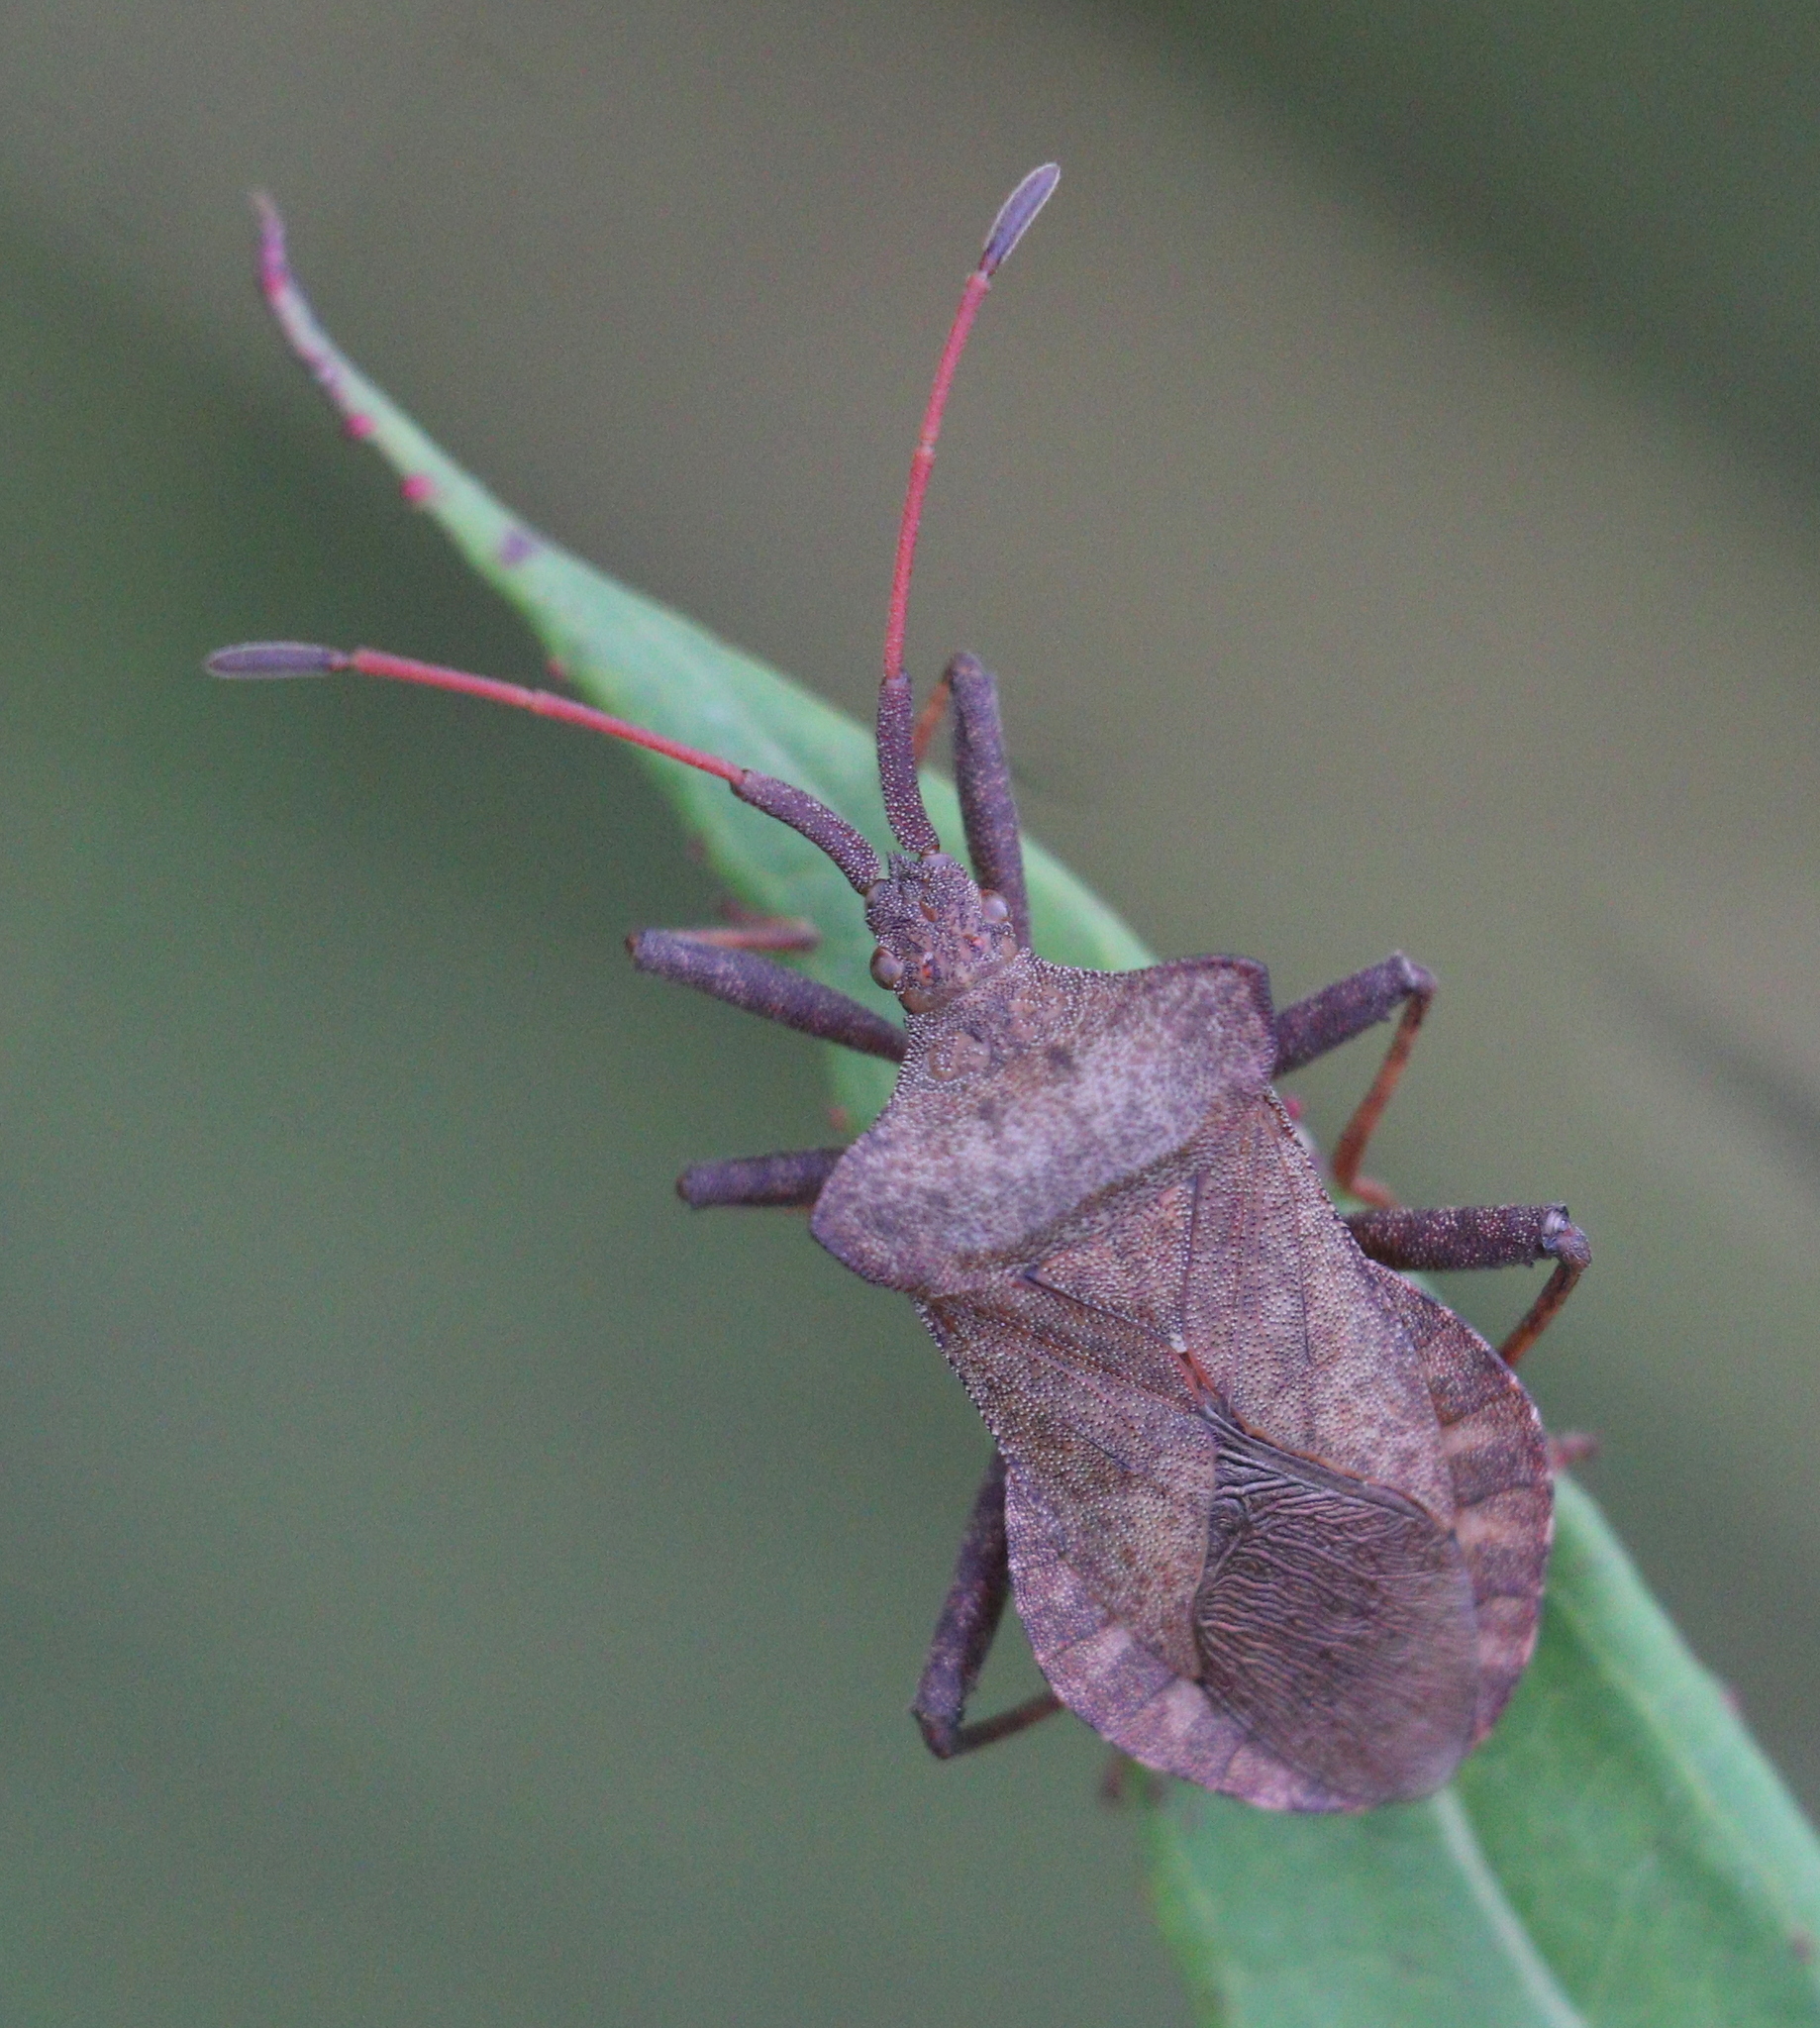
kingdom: Animalia
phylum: Arthropoda
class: Insecta
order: Hemiptera
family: Coreidae
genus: Coreus
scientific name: Coreus marginatus
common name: Dock bug
